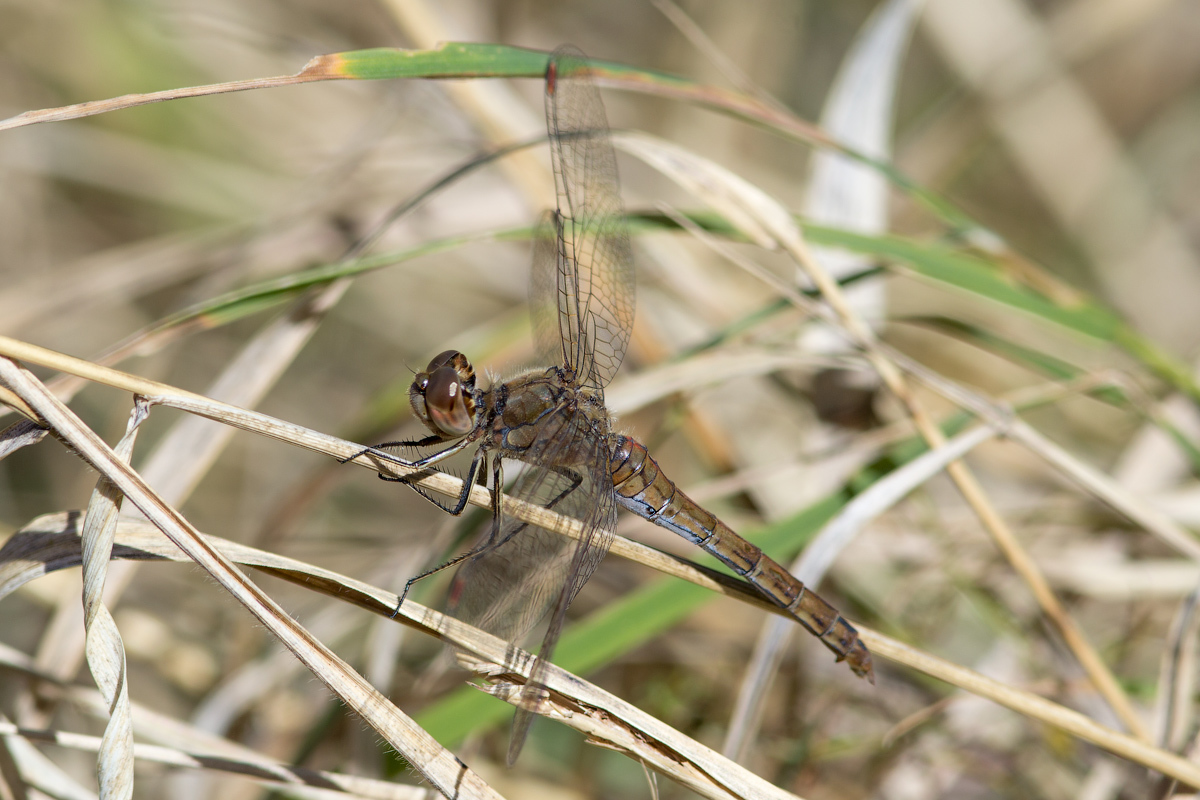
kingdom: Animalia
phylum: Arthropoda
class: Insecta
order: Odonata
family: Libellulidae
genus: Sympetrum
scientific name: Sympetrum vulgatum
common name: Vagrant darter
